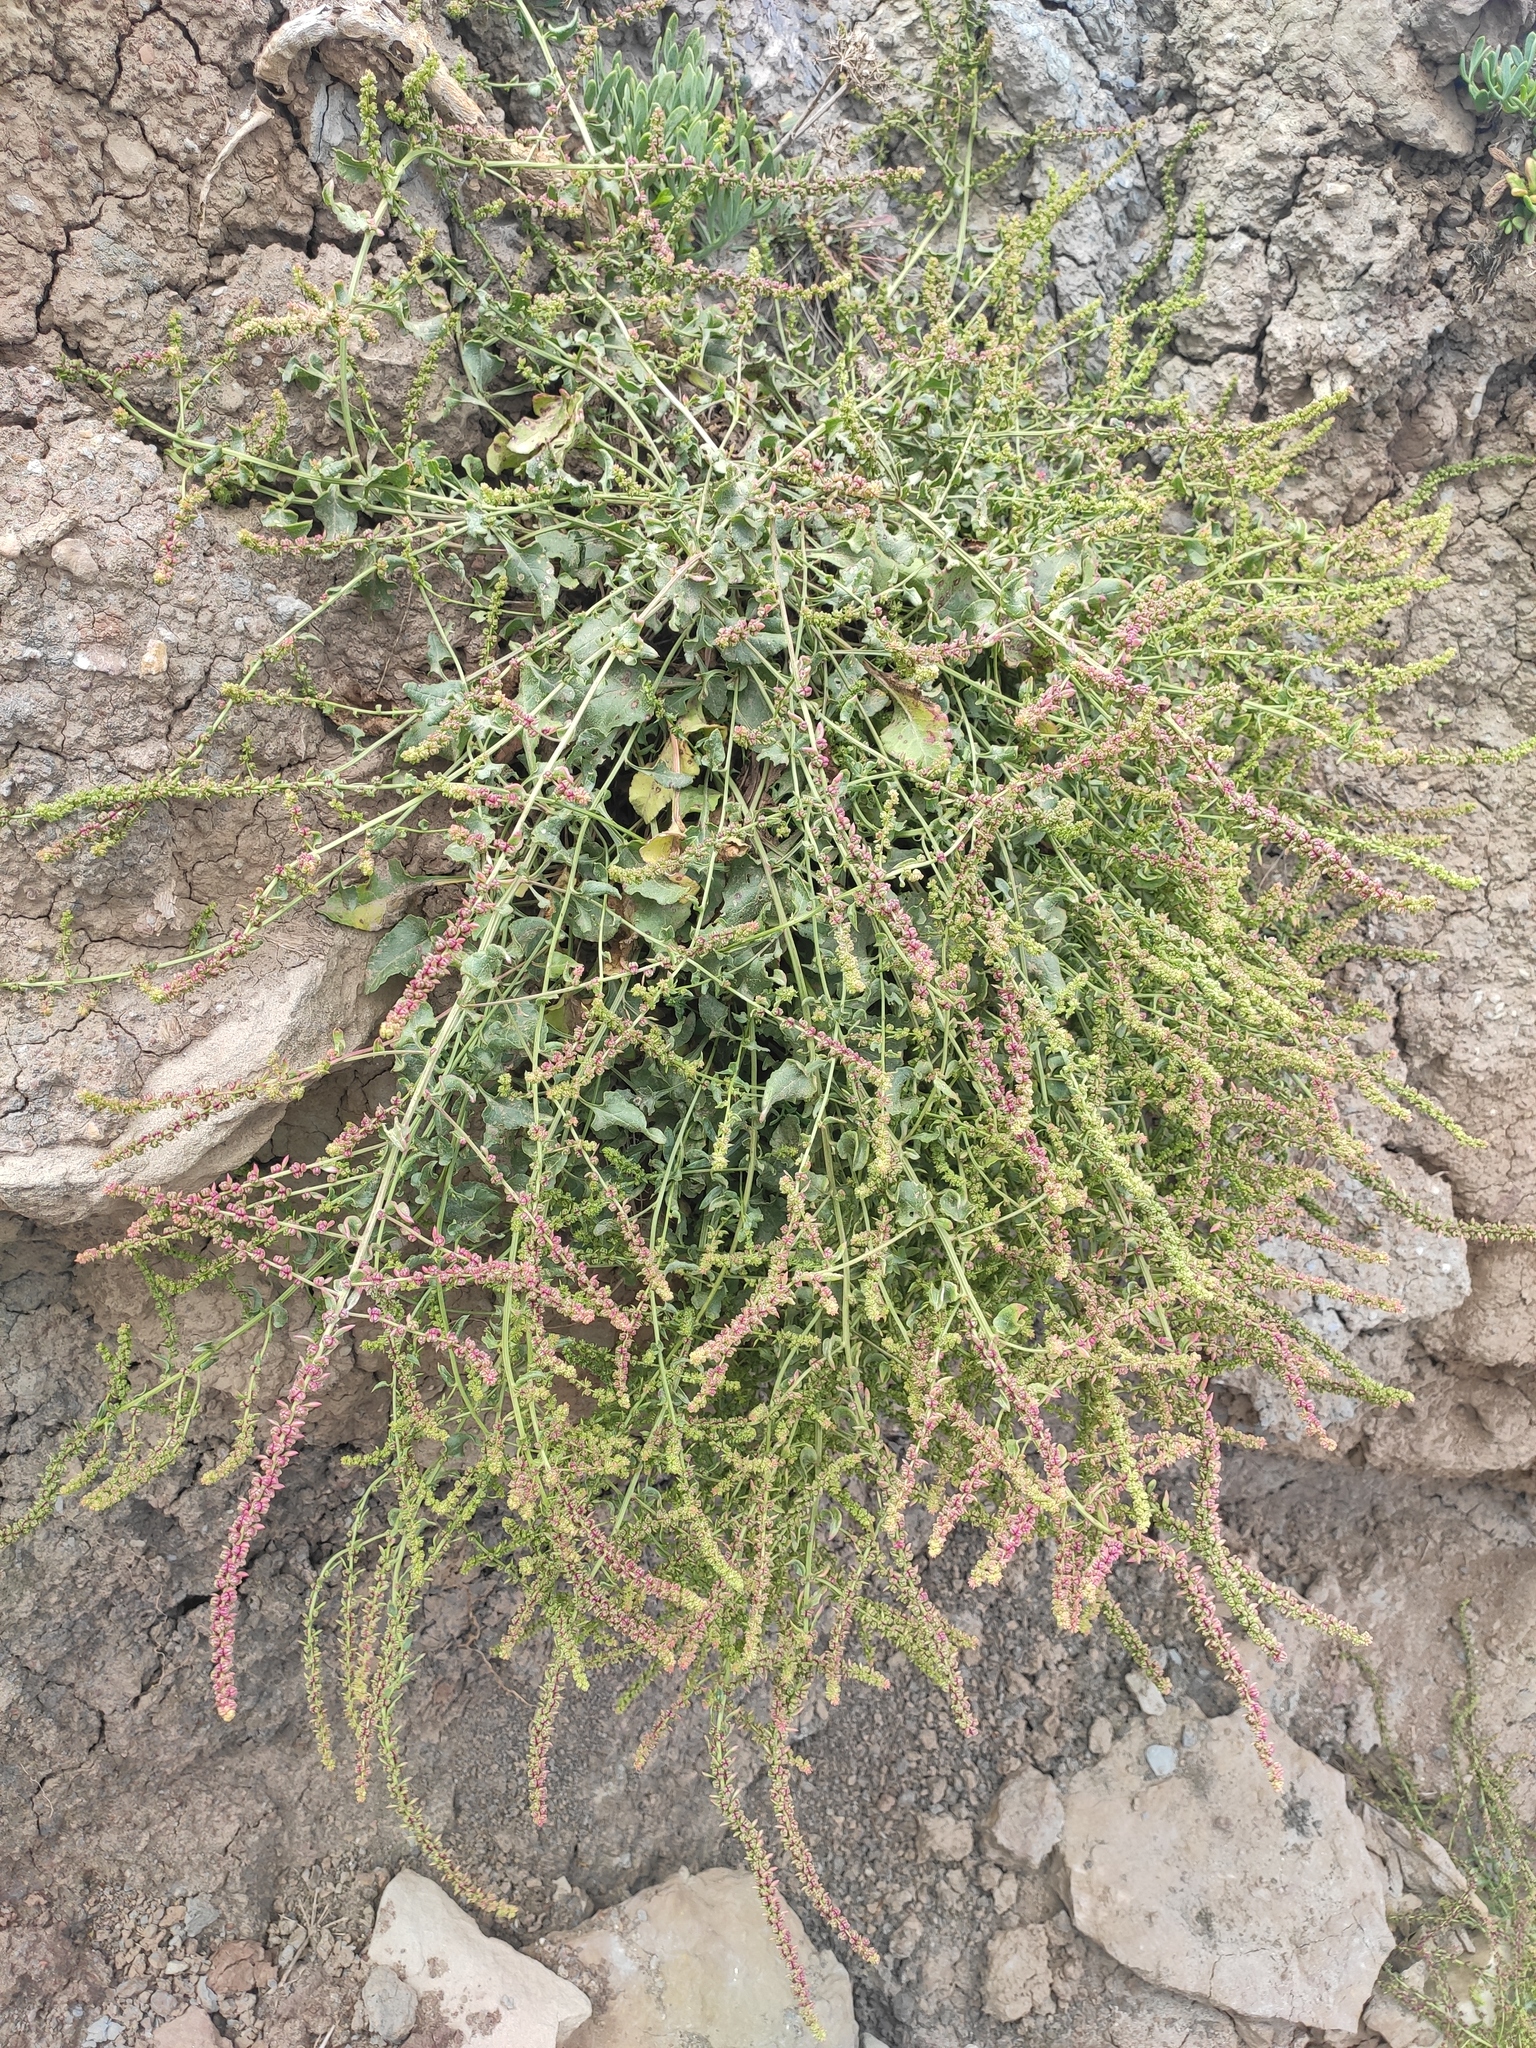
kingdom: Plantae
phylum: Tracheophyta
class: Magnoliopsida
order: Caryophyllales
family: Amaranthaceae
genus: Beta
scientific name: Beta vulgaris
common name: Beet
